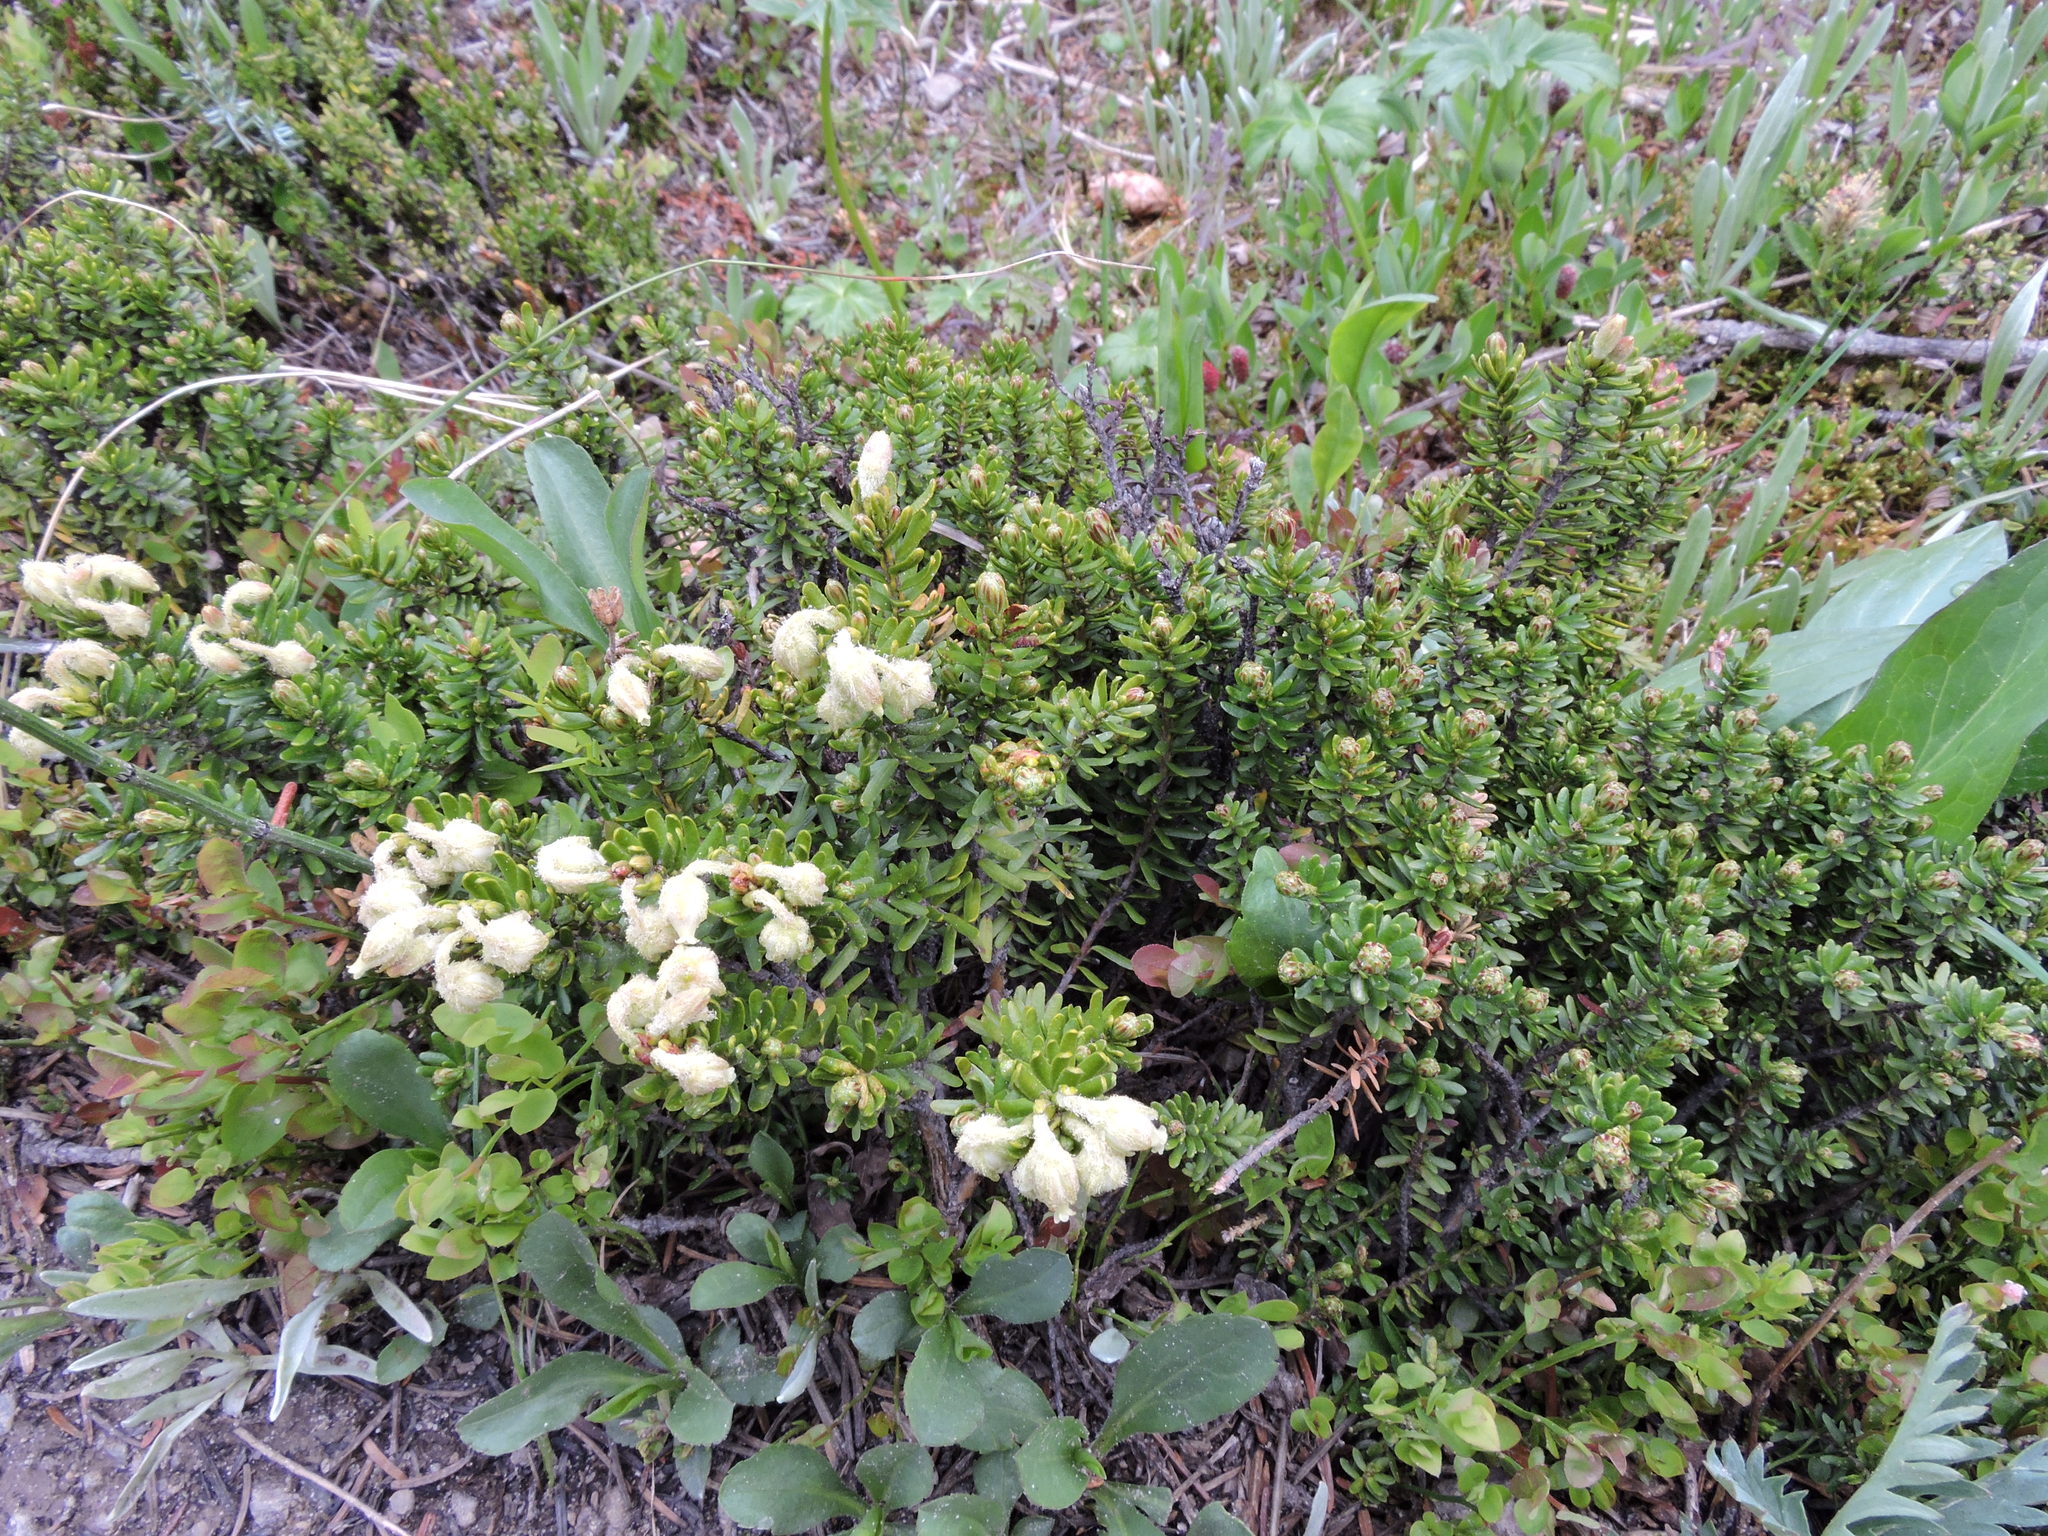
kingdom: Plantae
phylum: Tracheophyta
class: Magnoliopsida
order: Ericales
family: Ericaceae
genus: Phyllodoce
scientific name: Phyllodoce glanduliflora
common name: Cream mountain heather
